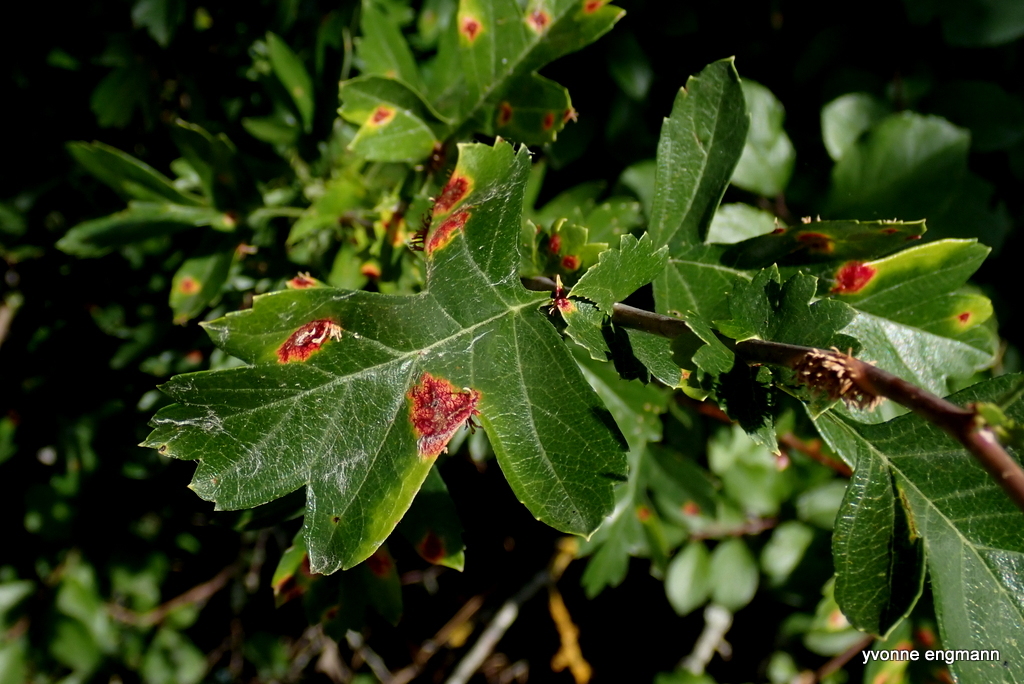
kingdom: Fungi
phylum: Basidiomycota
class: Pucciniomycetes
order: Pucciniales
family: Gymnosporangiaceae
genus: Gymnosporangium
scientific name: Gymnosporangium clavariiforme
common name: Tongues of fire
